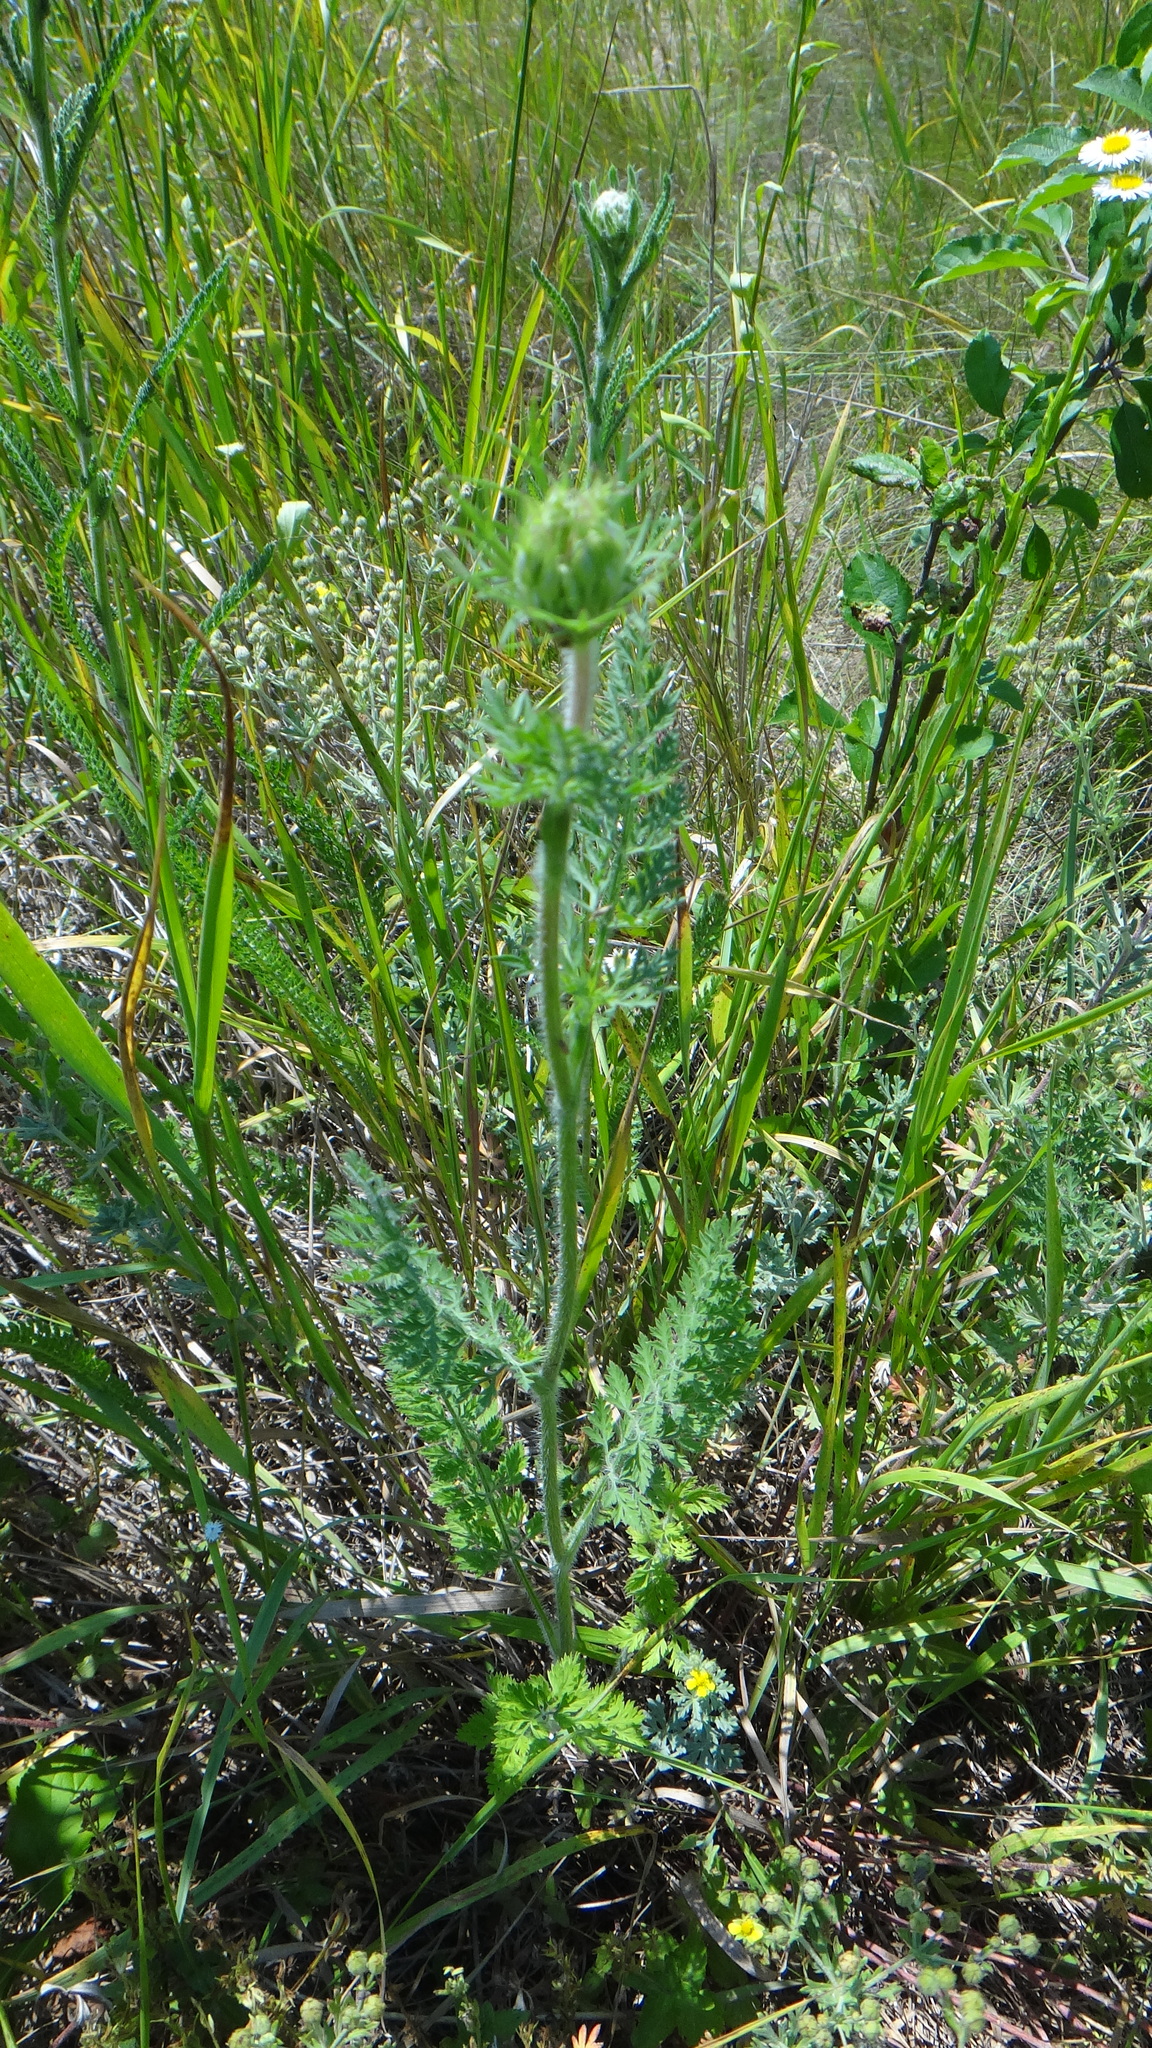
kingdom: Plantae
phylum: Tracheophyta
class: Magnoliopsida
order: Apiales
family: Apiaceae
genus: Daucus
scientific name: Daucus carota
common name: Wild carrot
